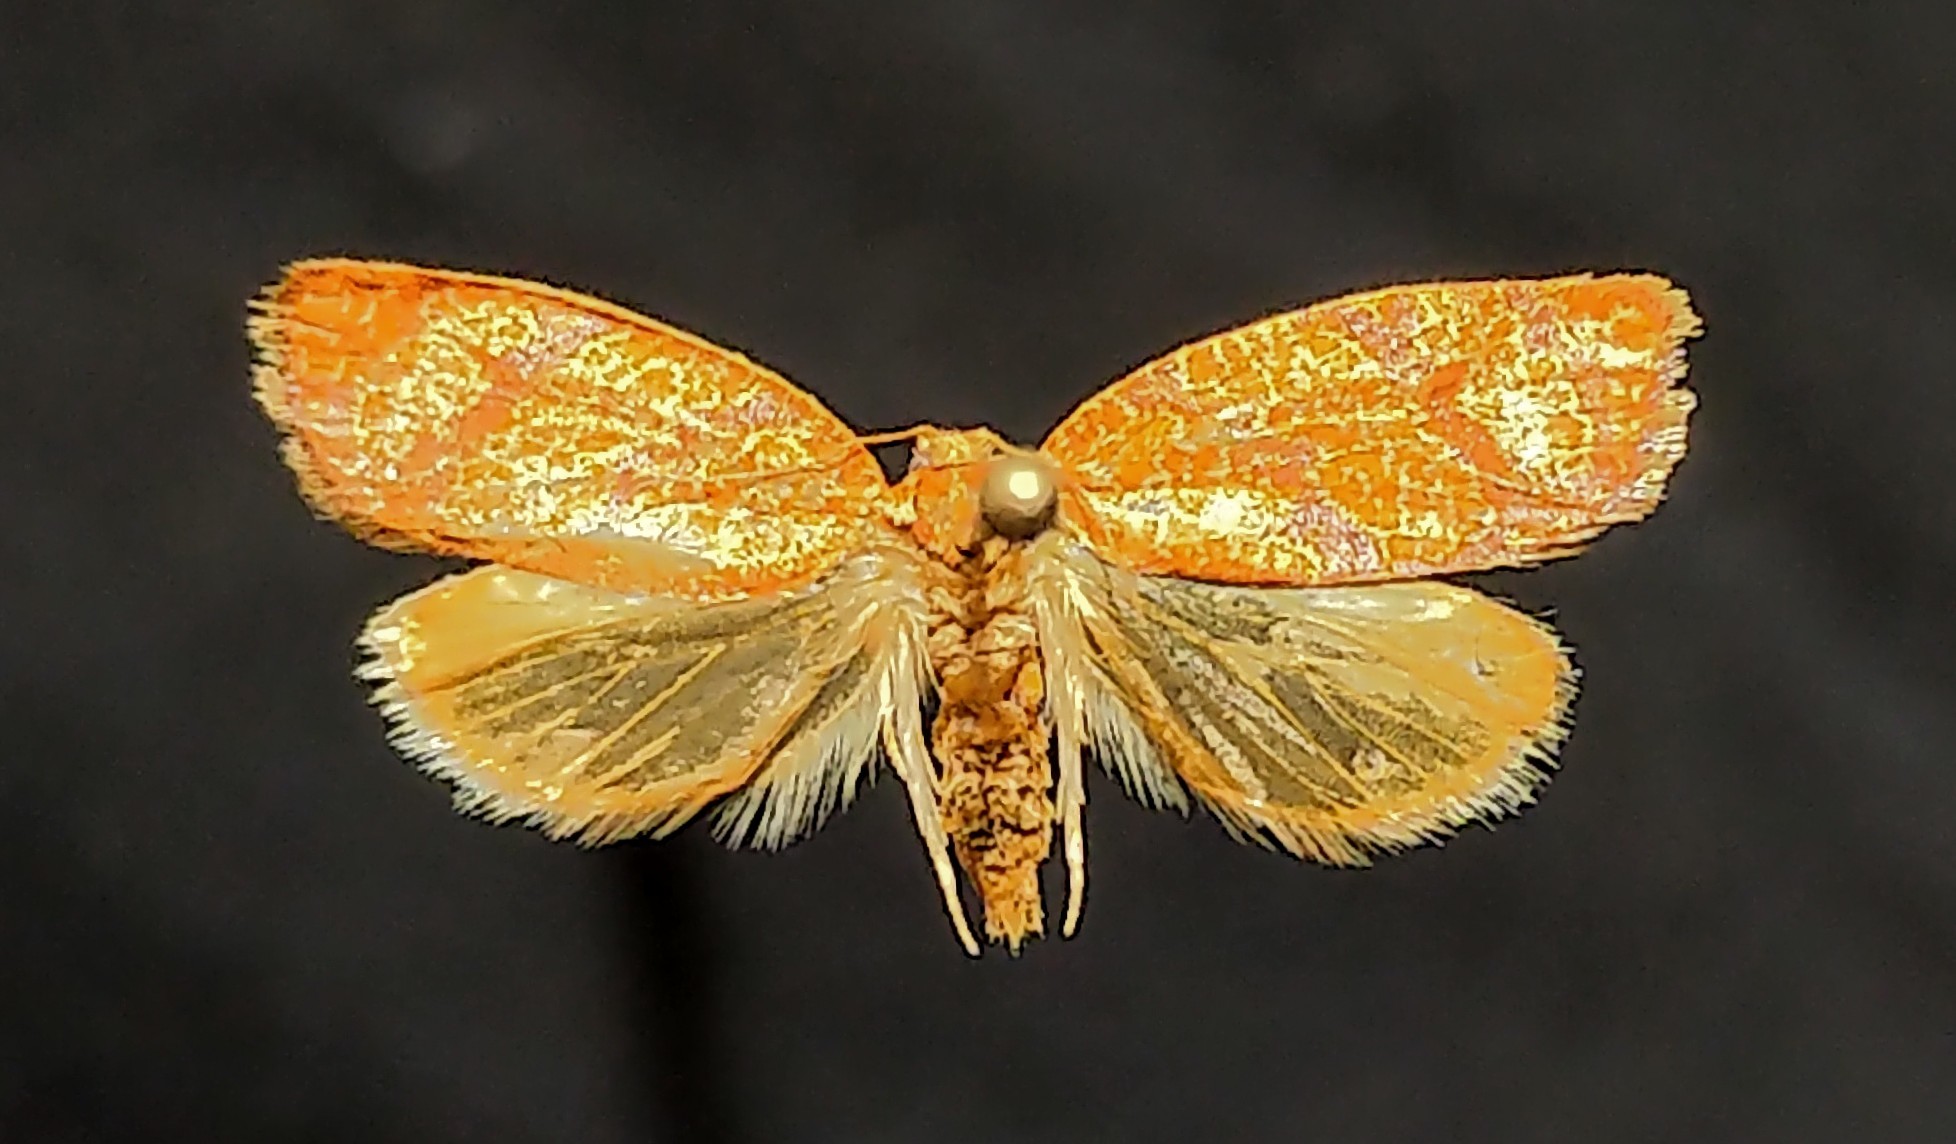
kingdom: Animalia
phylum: Arthropoda
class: Insecta
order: Lepidoptera
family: Tortricidae
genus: Argyrotaenia
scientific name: Argyrotaenia quadrifasciana
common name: Four-lined leafroller moth
